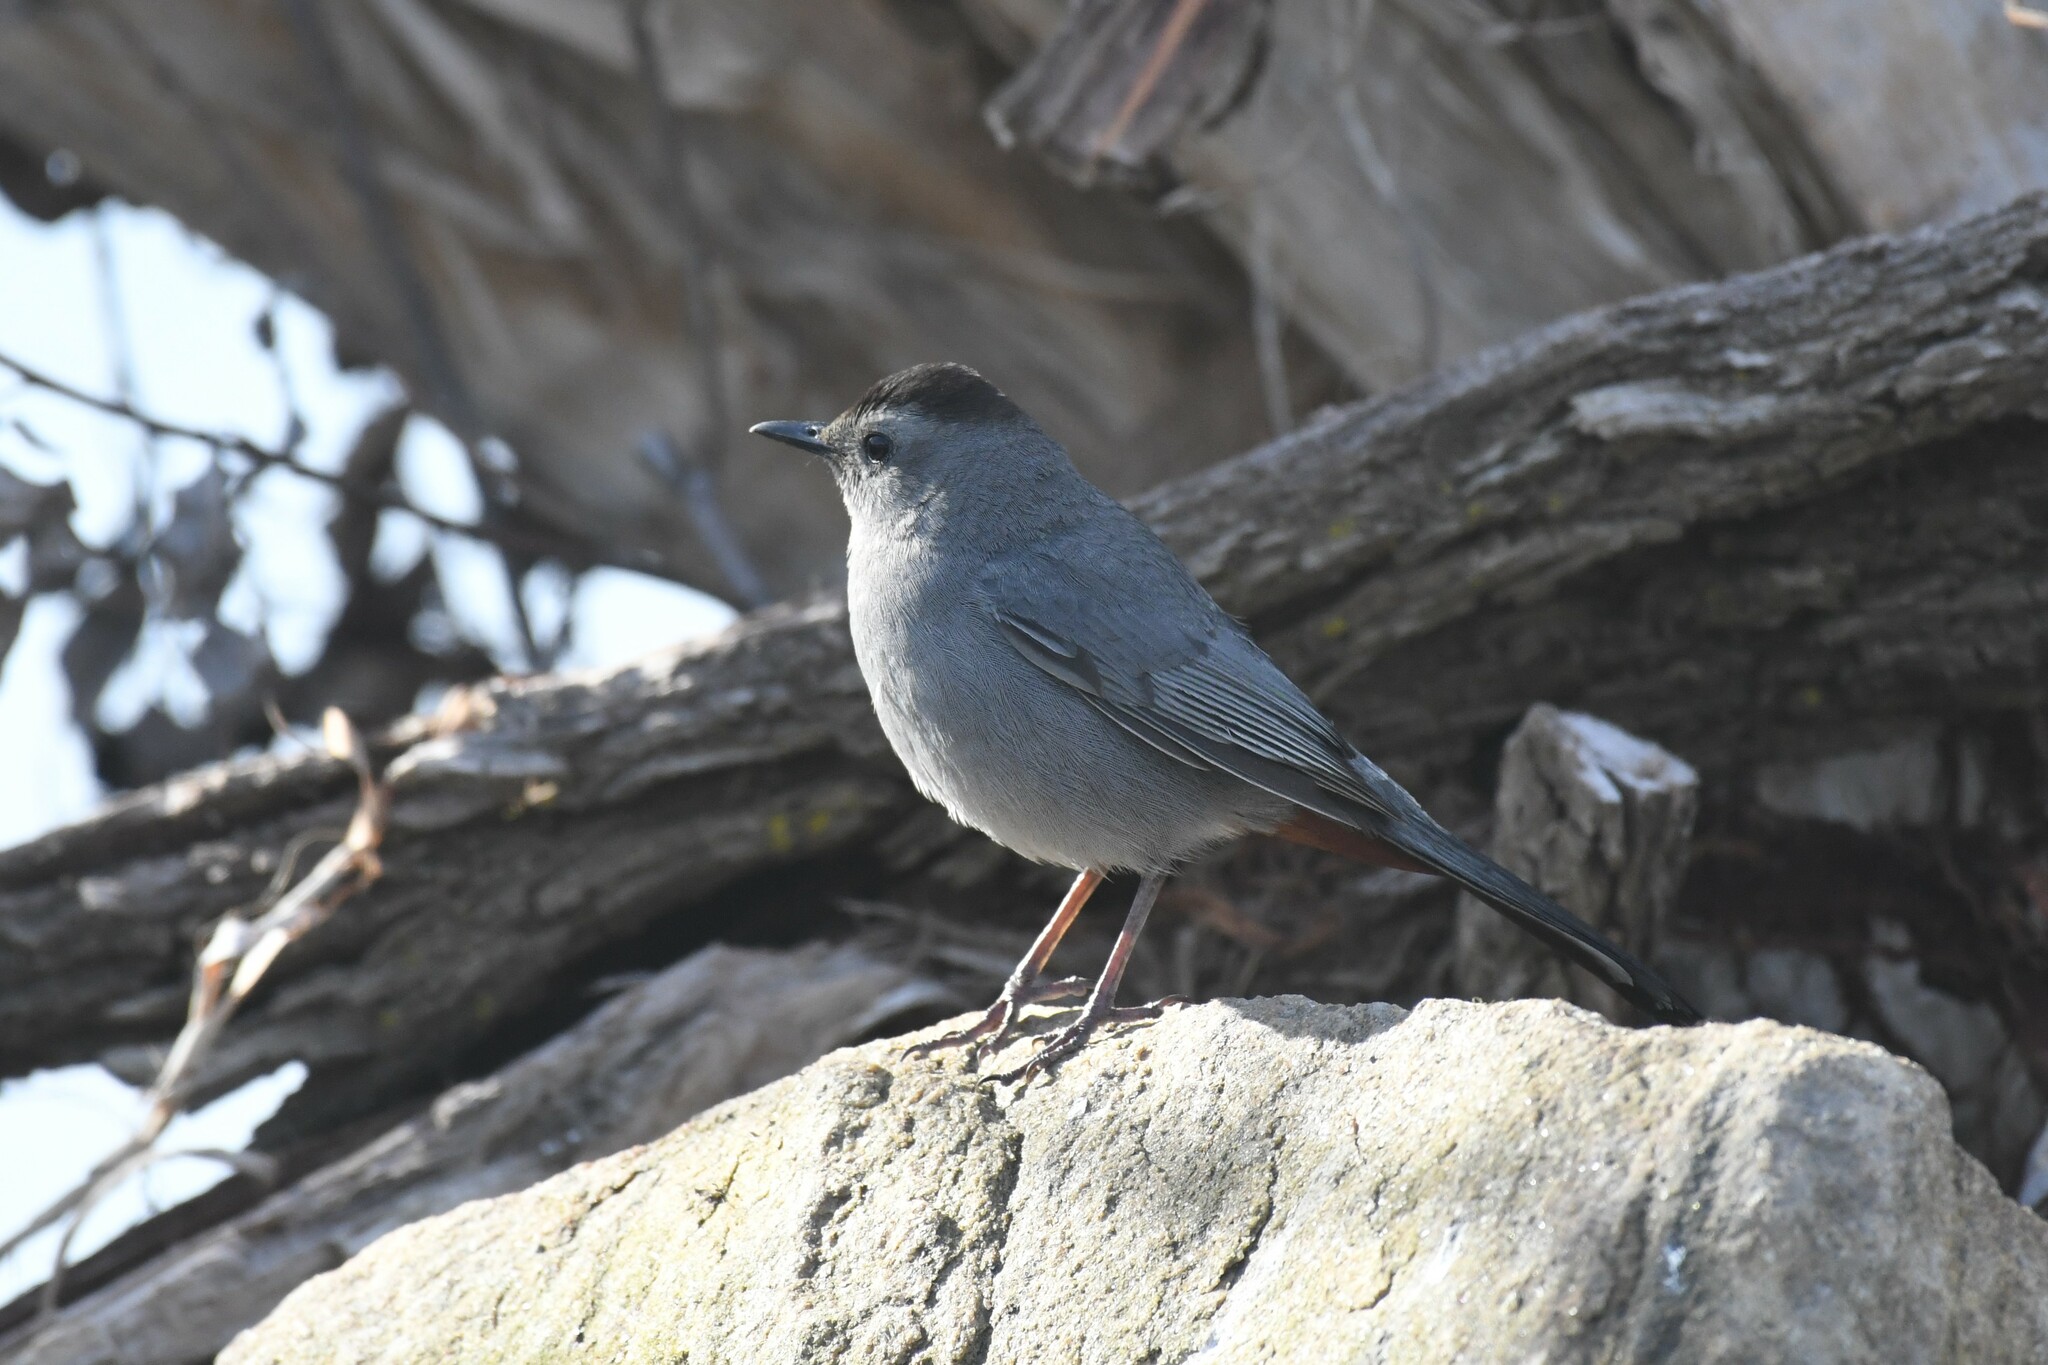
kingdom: Animalia
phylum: Chordata
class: Aves
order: Passeriformes
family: Mimidae
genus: Dumetella
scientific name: Dumetella carolinensis
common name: Gray catbird
